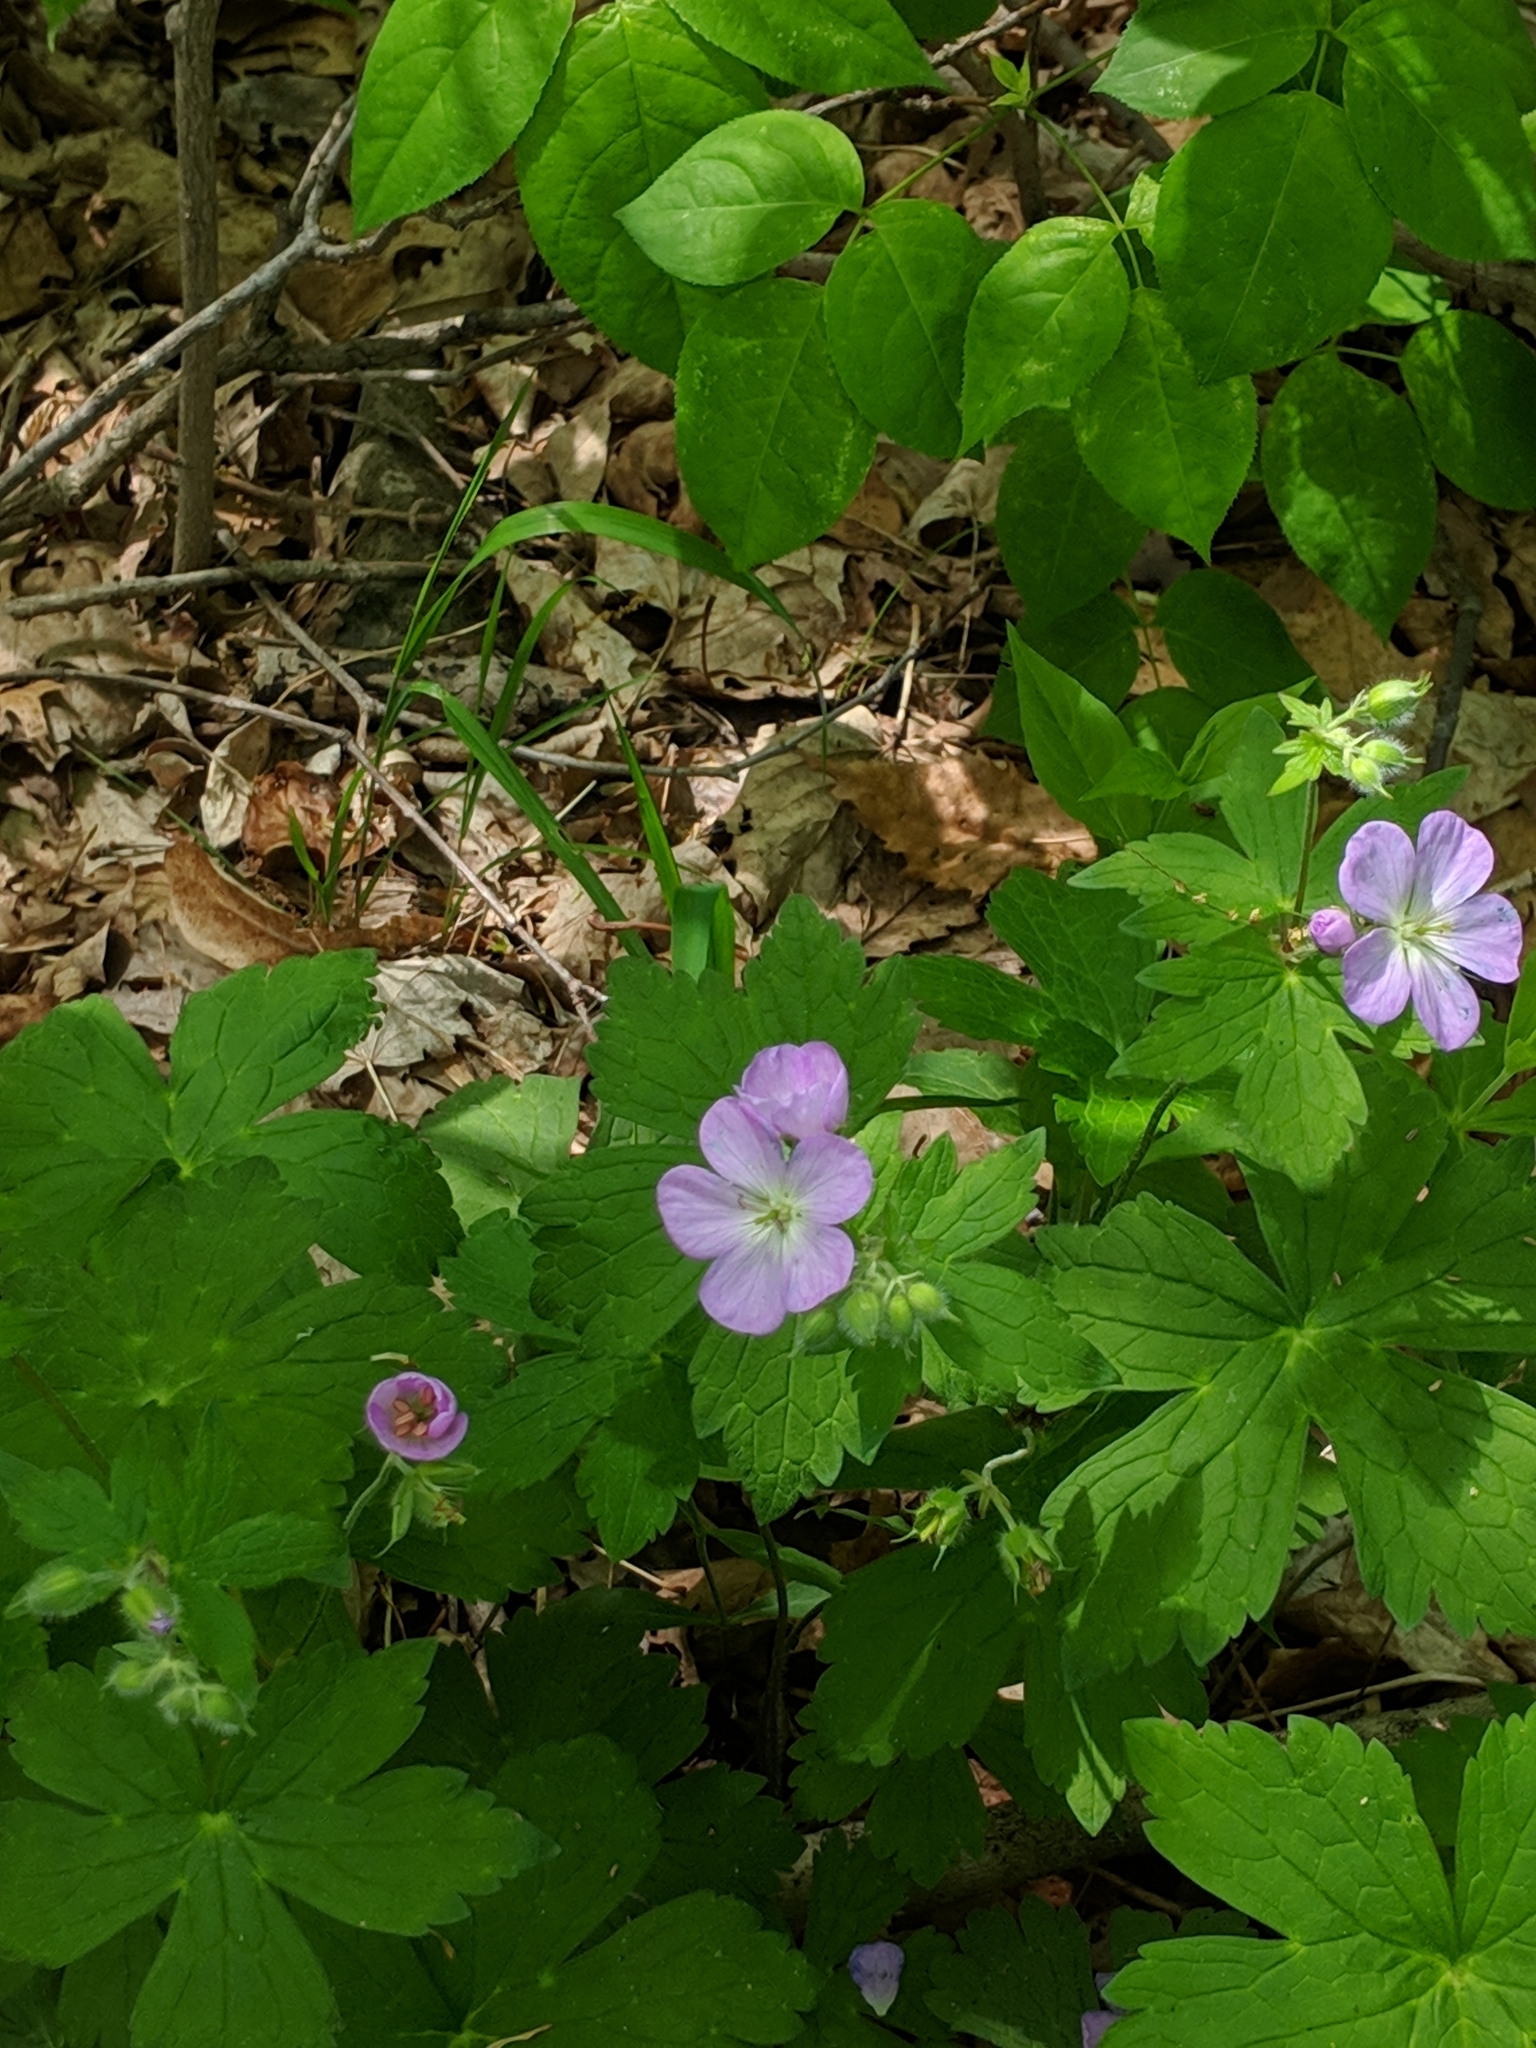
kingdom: Plantae
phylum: Tracheophyta
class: Magnoliopsida
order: Geraniales
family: Geraniaceae
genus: Geranium
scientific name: Geranium maculatum
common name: Spotted geranium
